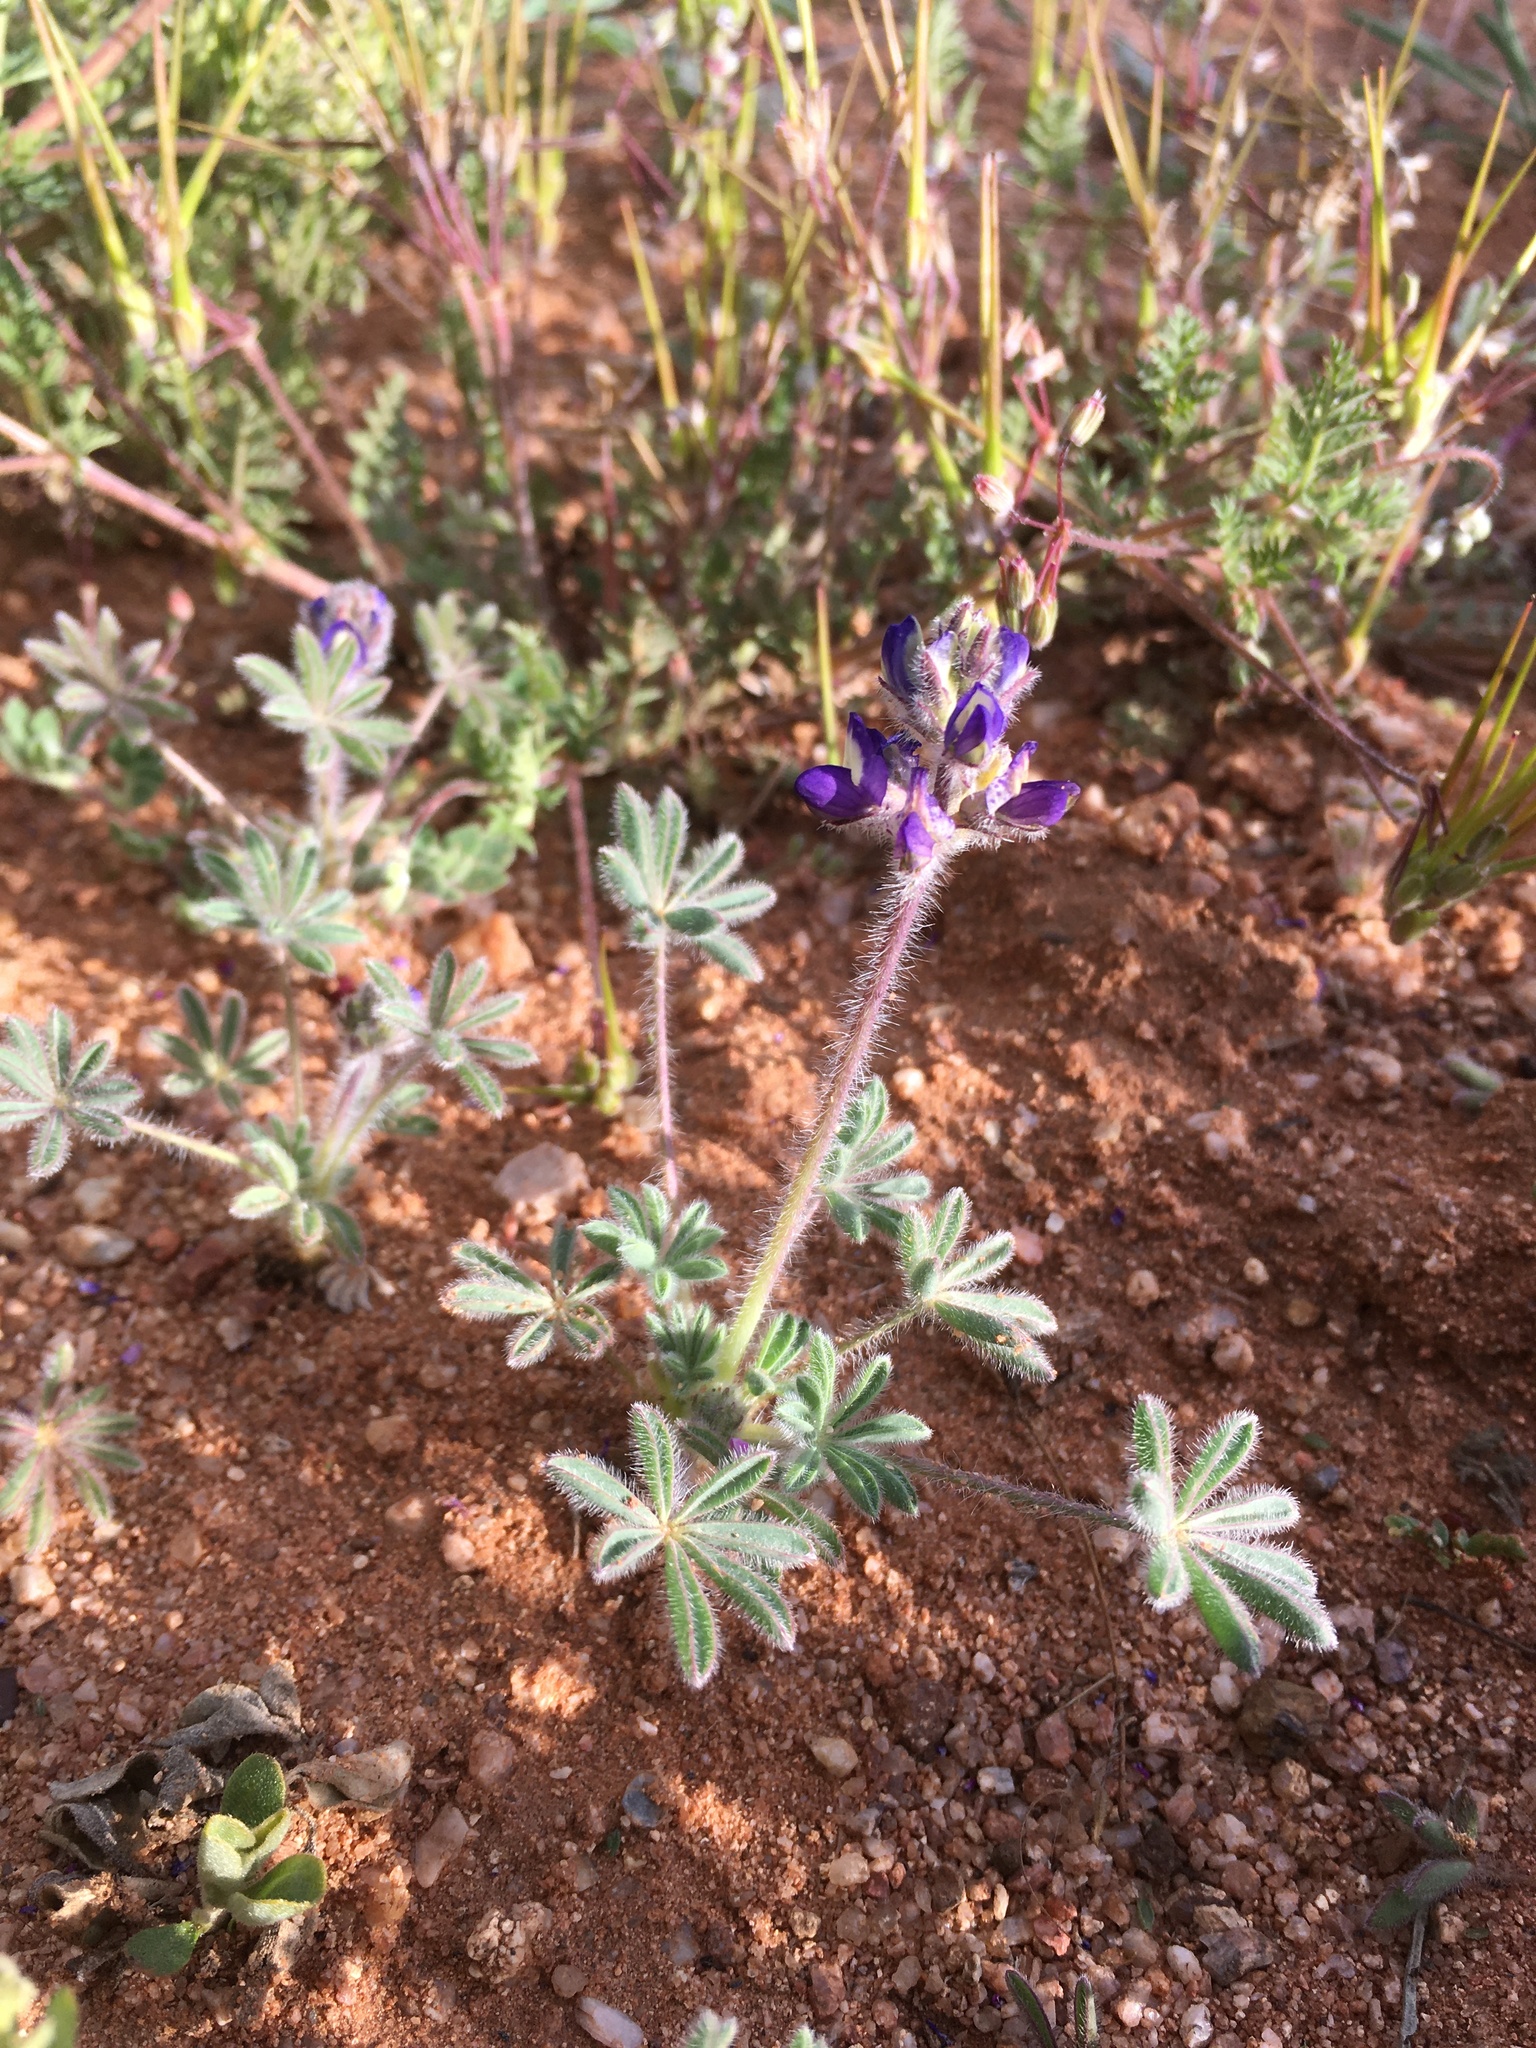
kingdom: Plantae
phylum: Tracheophyta
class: Magnoliopsida
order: Fabales
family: Fabaceae
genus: Lupinus
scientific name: Lupinus brevicaulis
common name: Sand lupine
